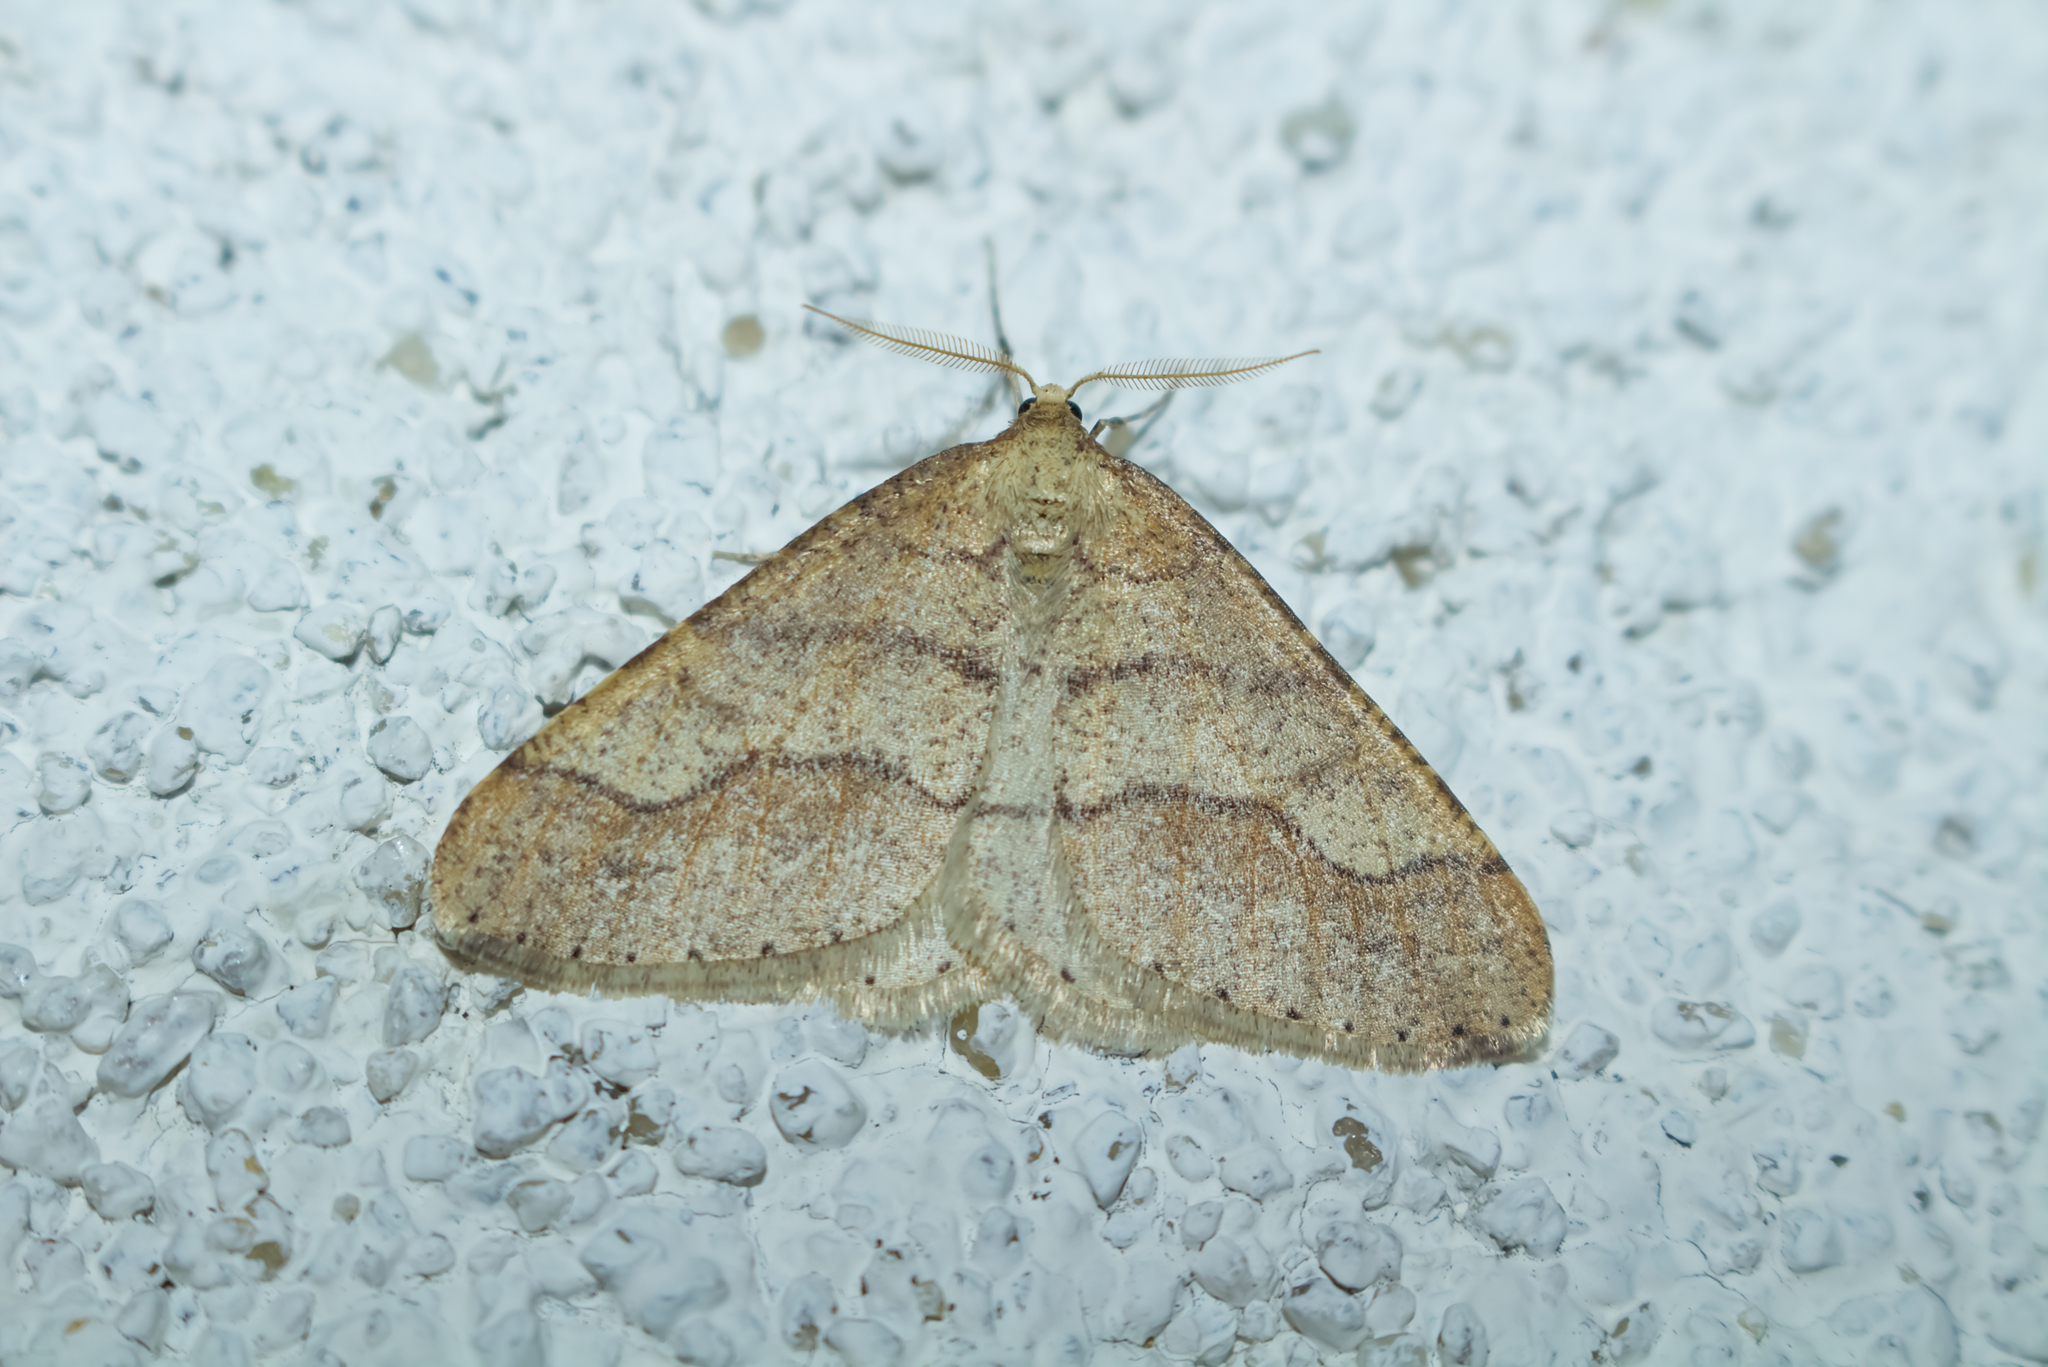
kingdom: Animalia
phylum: Arthropoda
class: Insecta
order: Lepidoptera
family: Geometridae
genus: Agriopis
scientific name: Agriopis marginaria
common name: Dotted border
